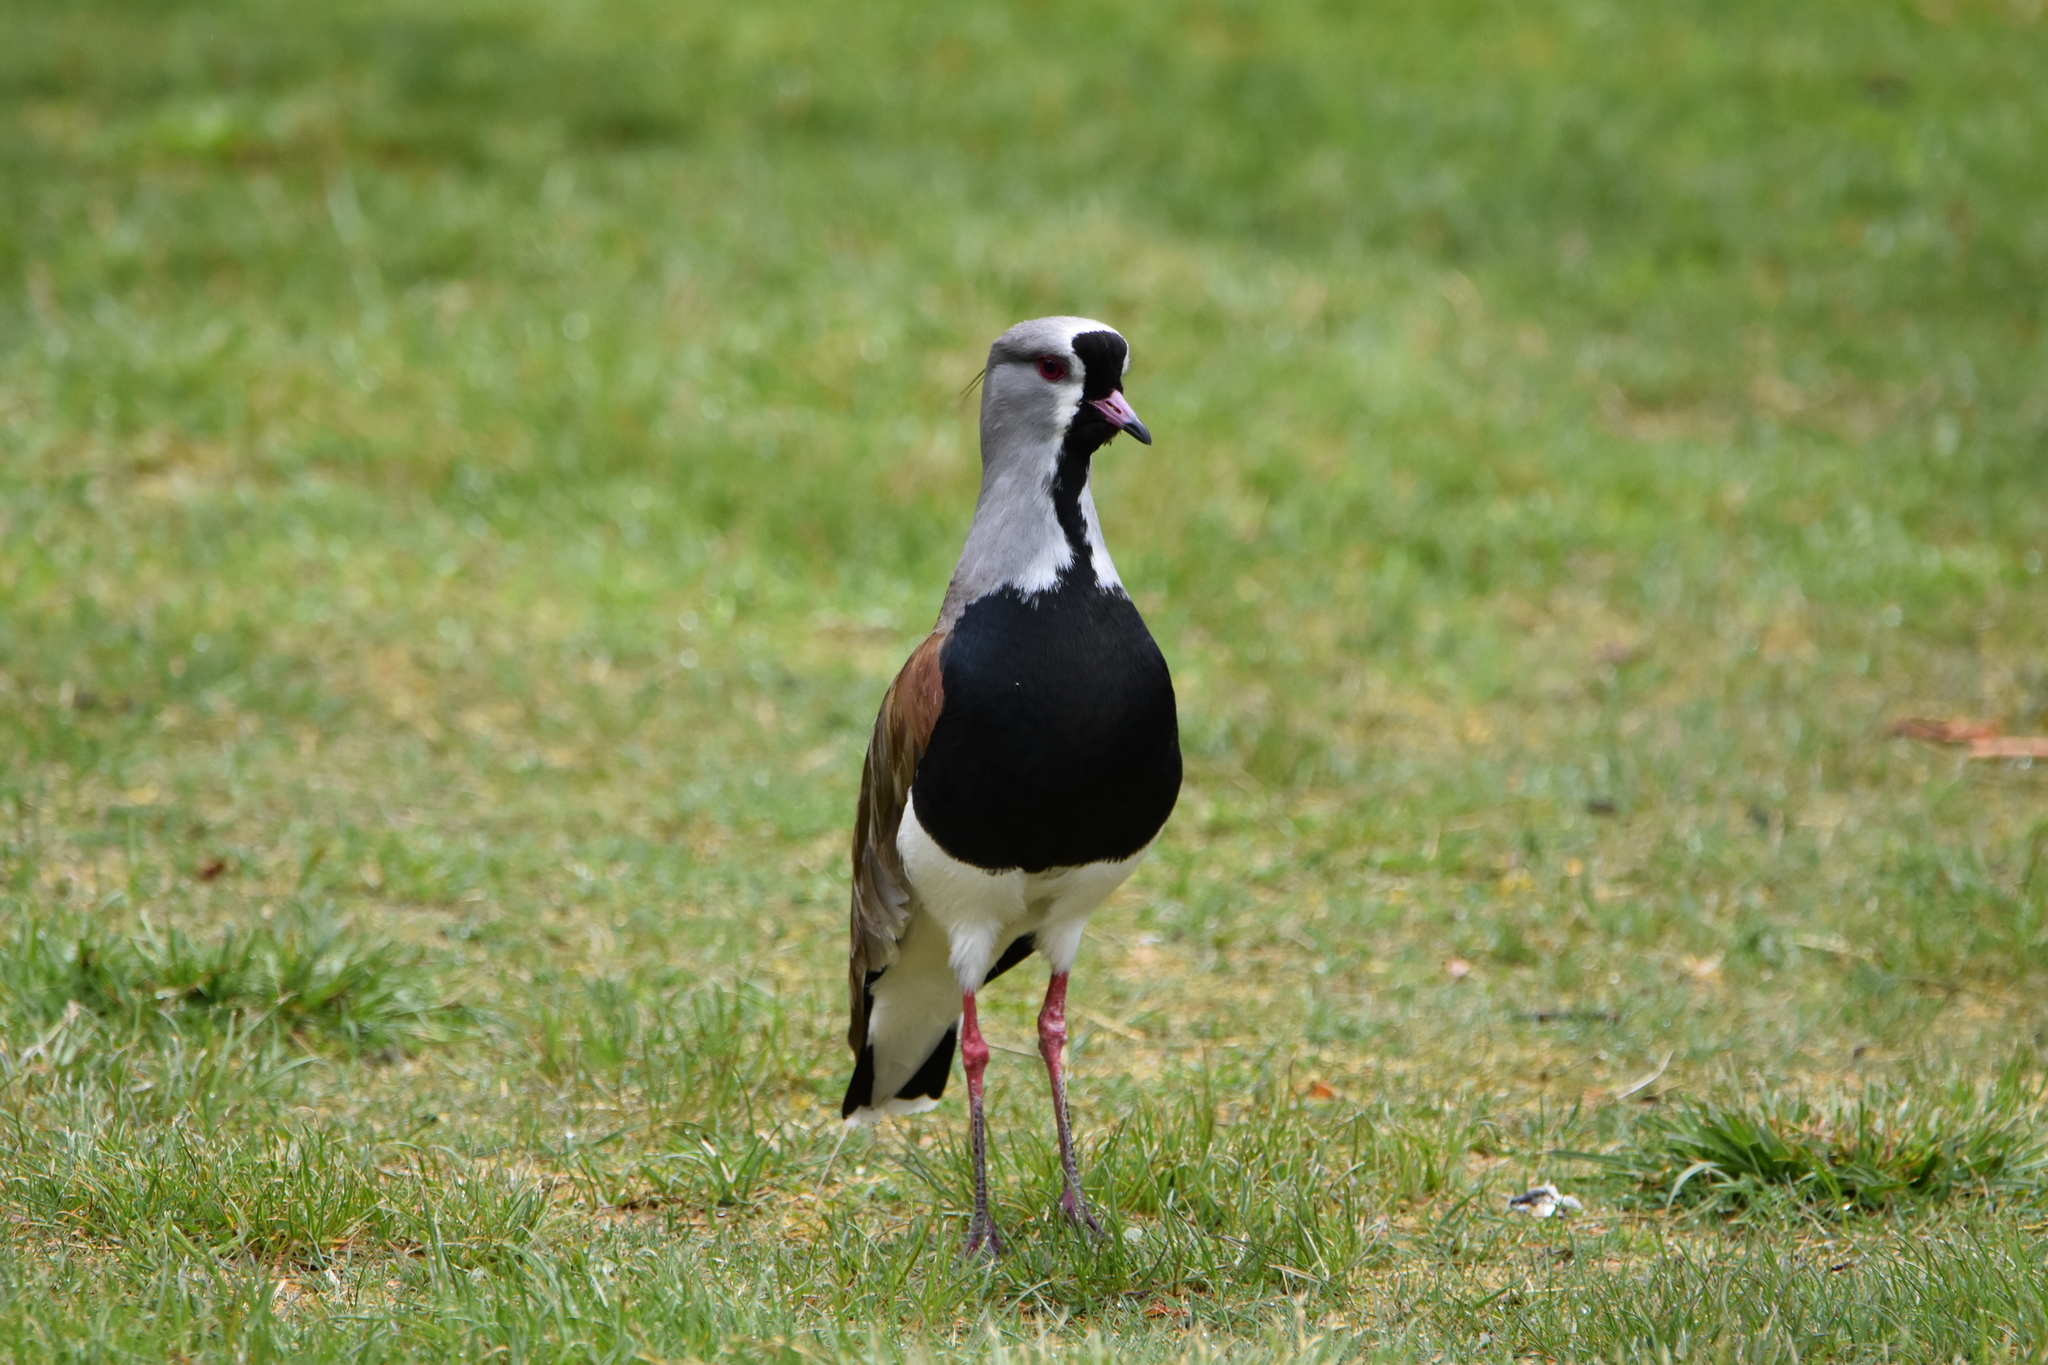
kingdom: Animalia
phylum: Chordata
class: Aves
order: Charadriiformes
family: Charadriidae
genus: Vanellus
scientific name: Vanellus chilensis
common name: Southern lapwing
